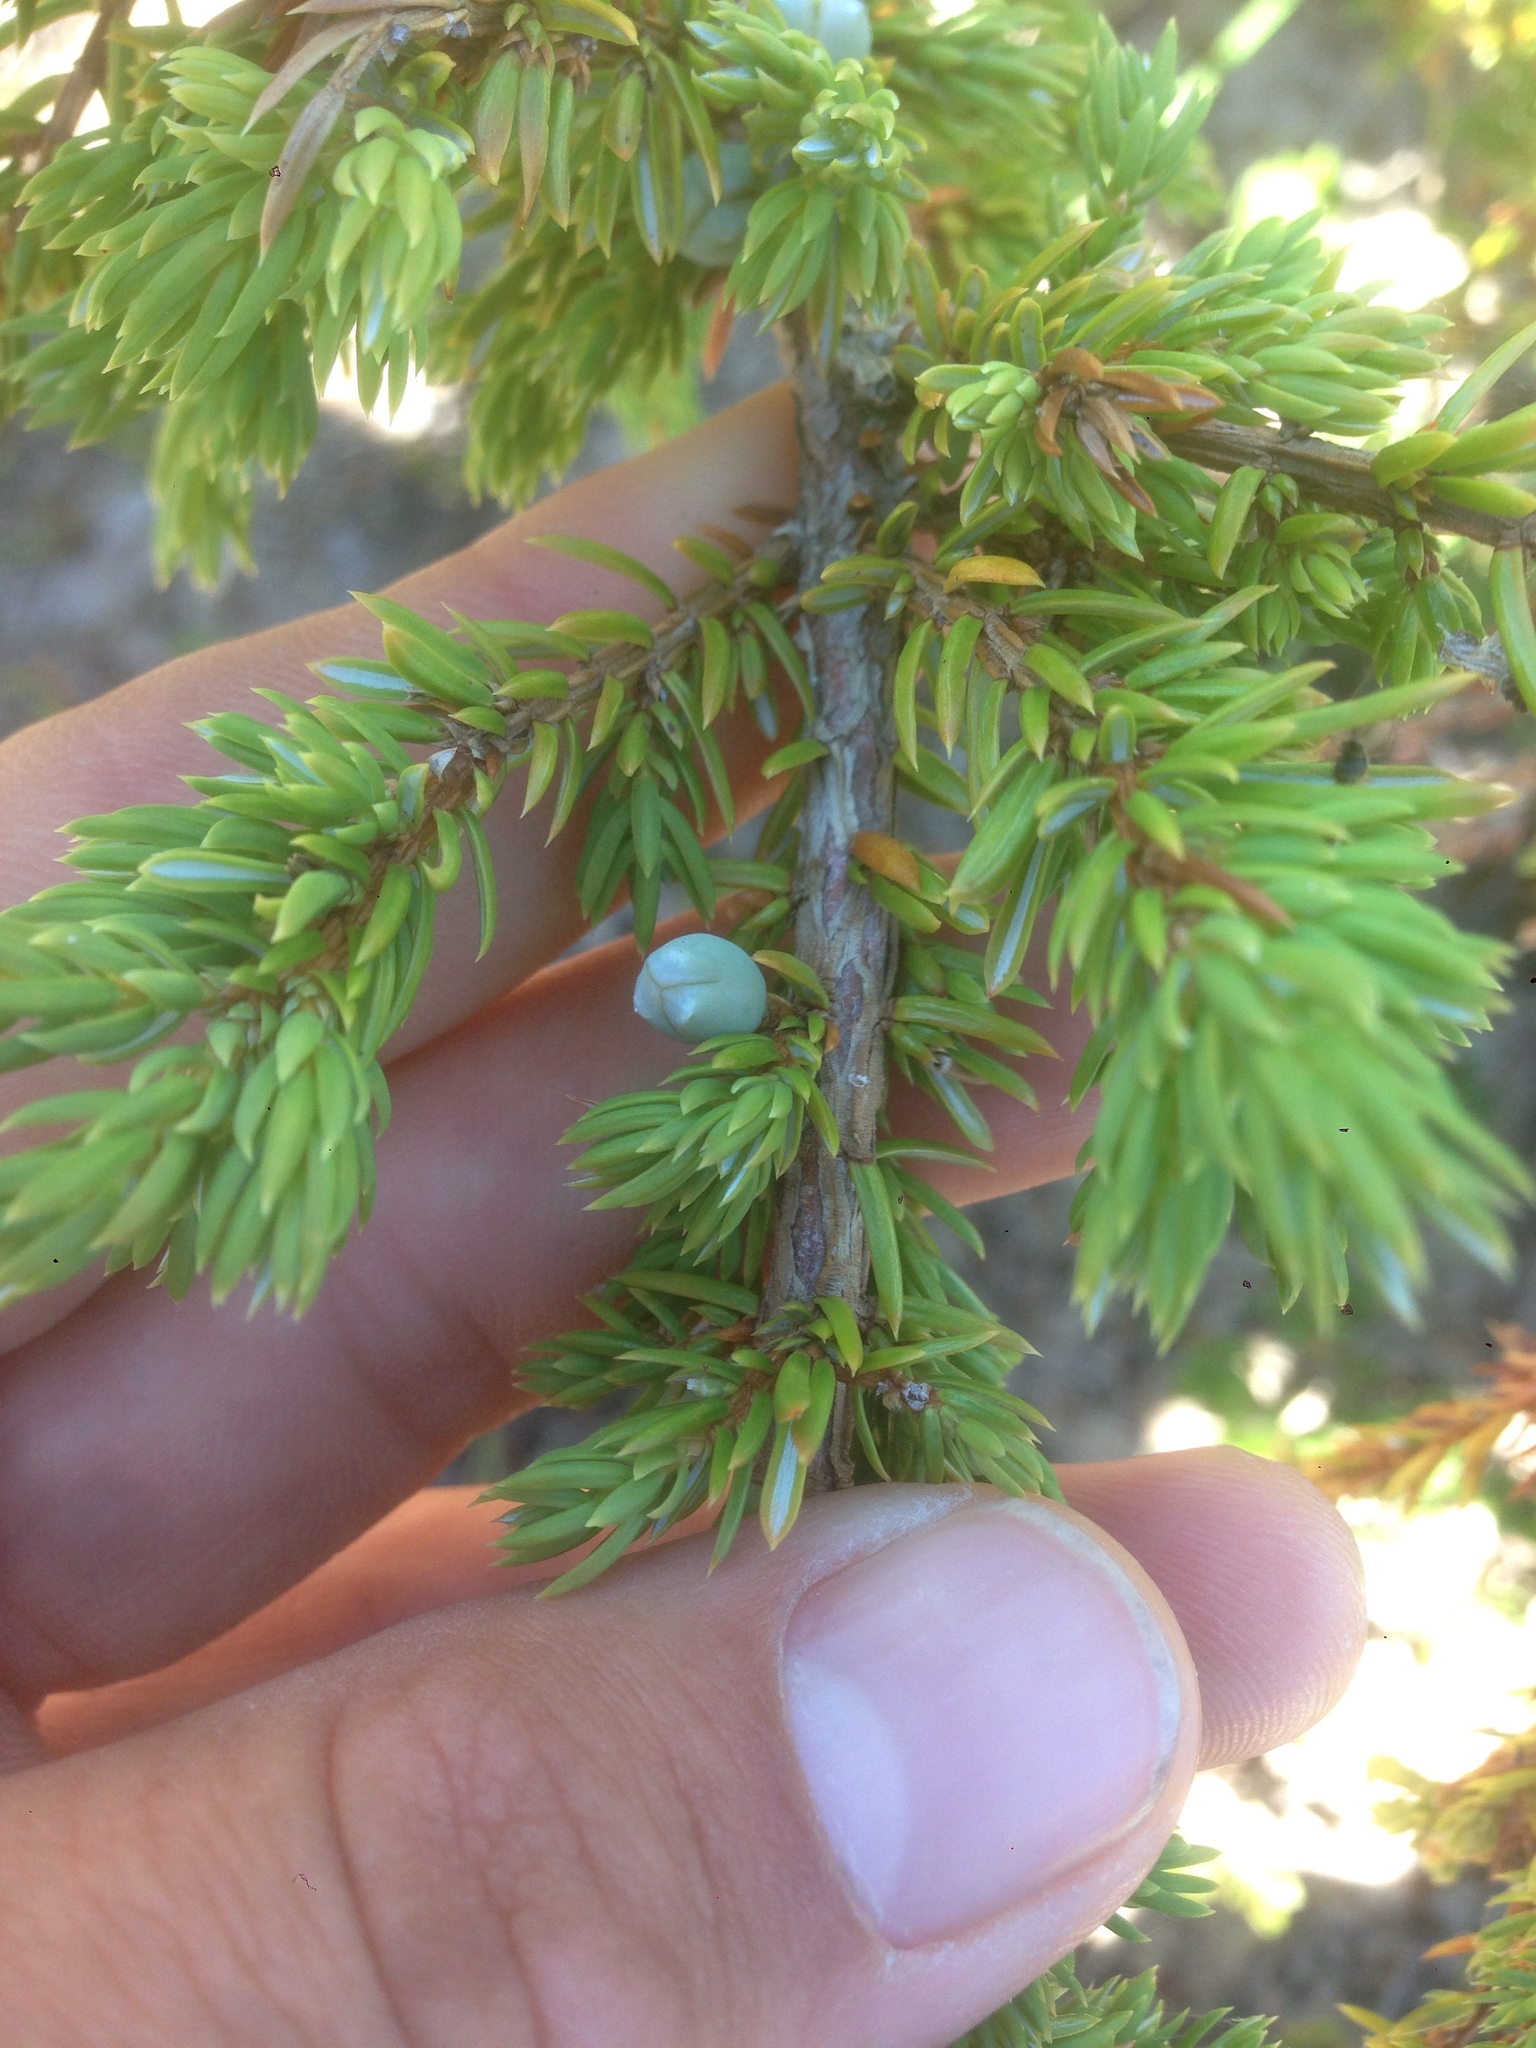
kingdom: Plantae
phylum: Tracheophyta
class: Pinopsida
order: Pinales
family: Cupressaceae
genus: Juniperus
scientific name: Juniperus communis
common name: Common juniper
